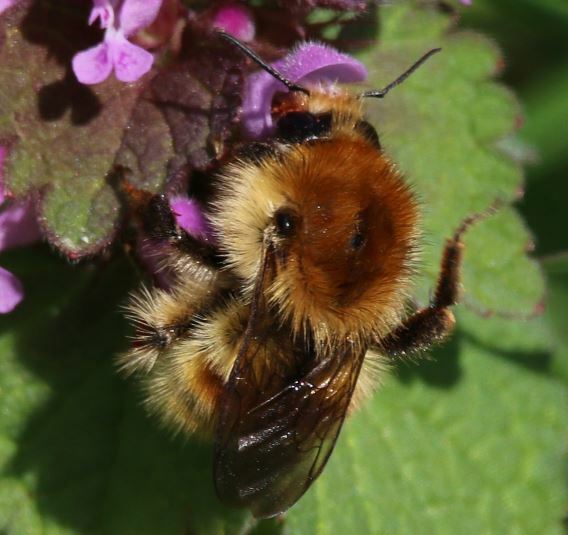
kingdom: Animalia
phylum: Arthropoda
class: Insecta
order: Hymenoptera
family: Apidae
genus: Bombus
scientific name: Bombus humilis
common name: Brown-banded carder-bee
